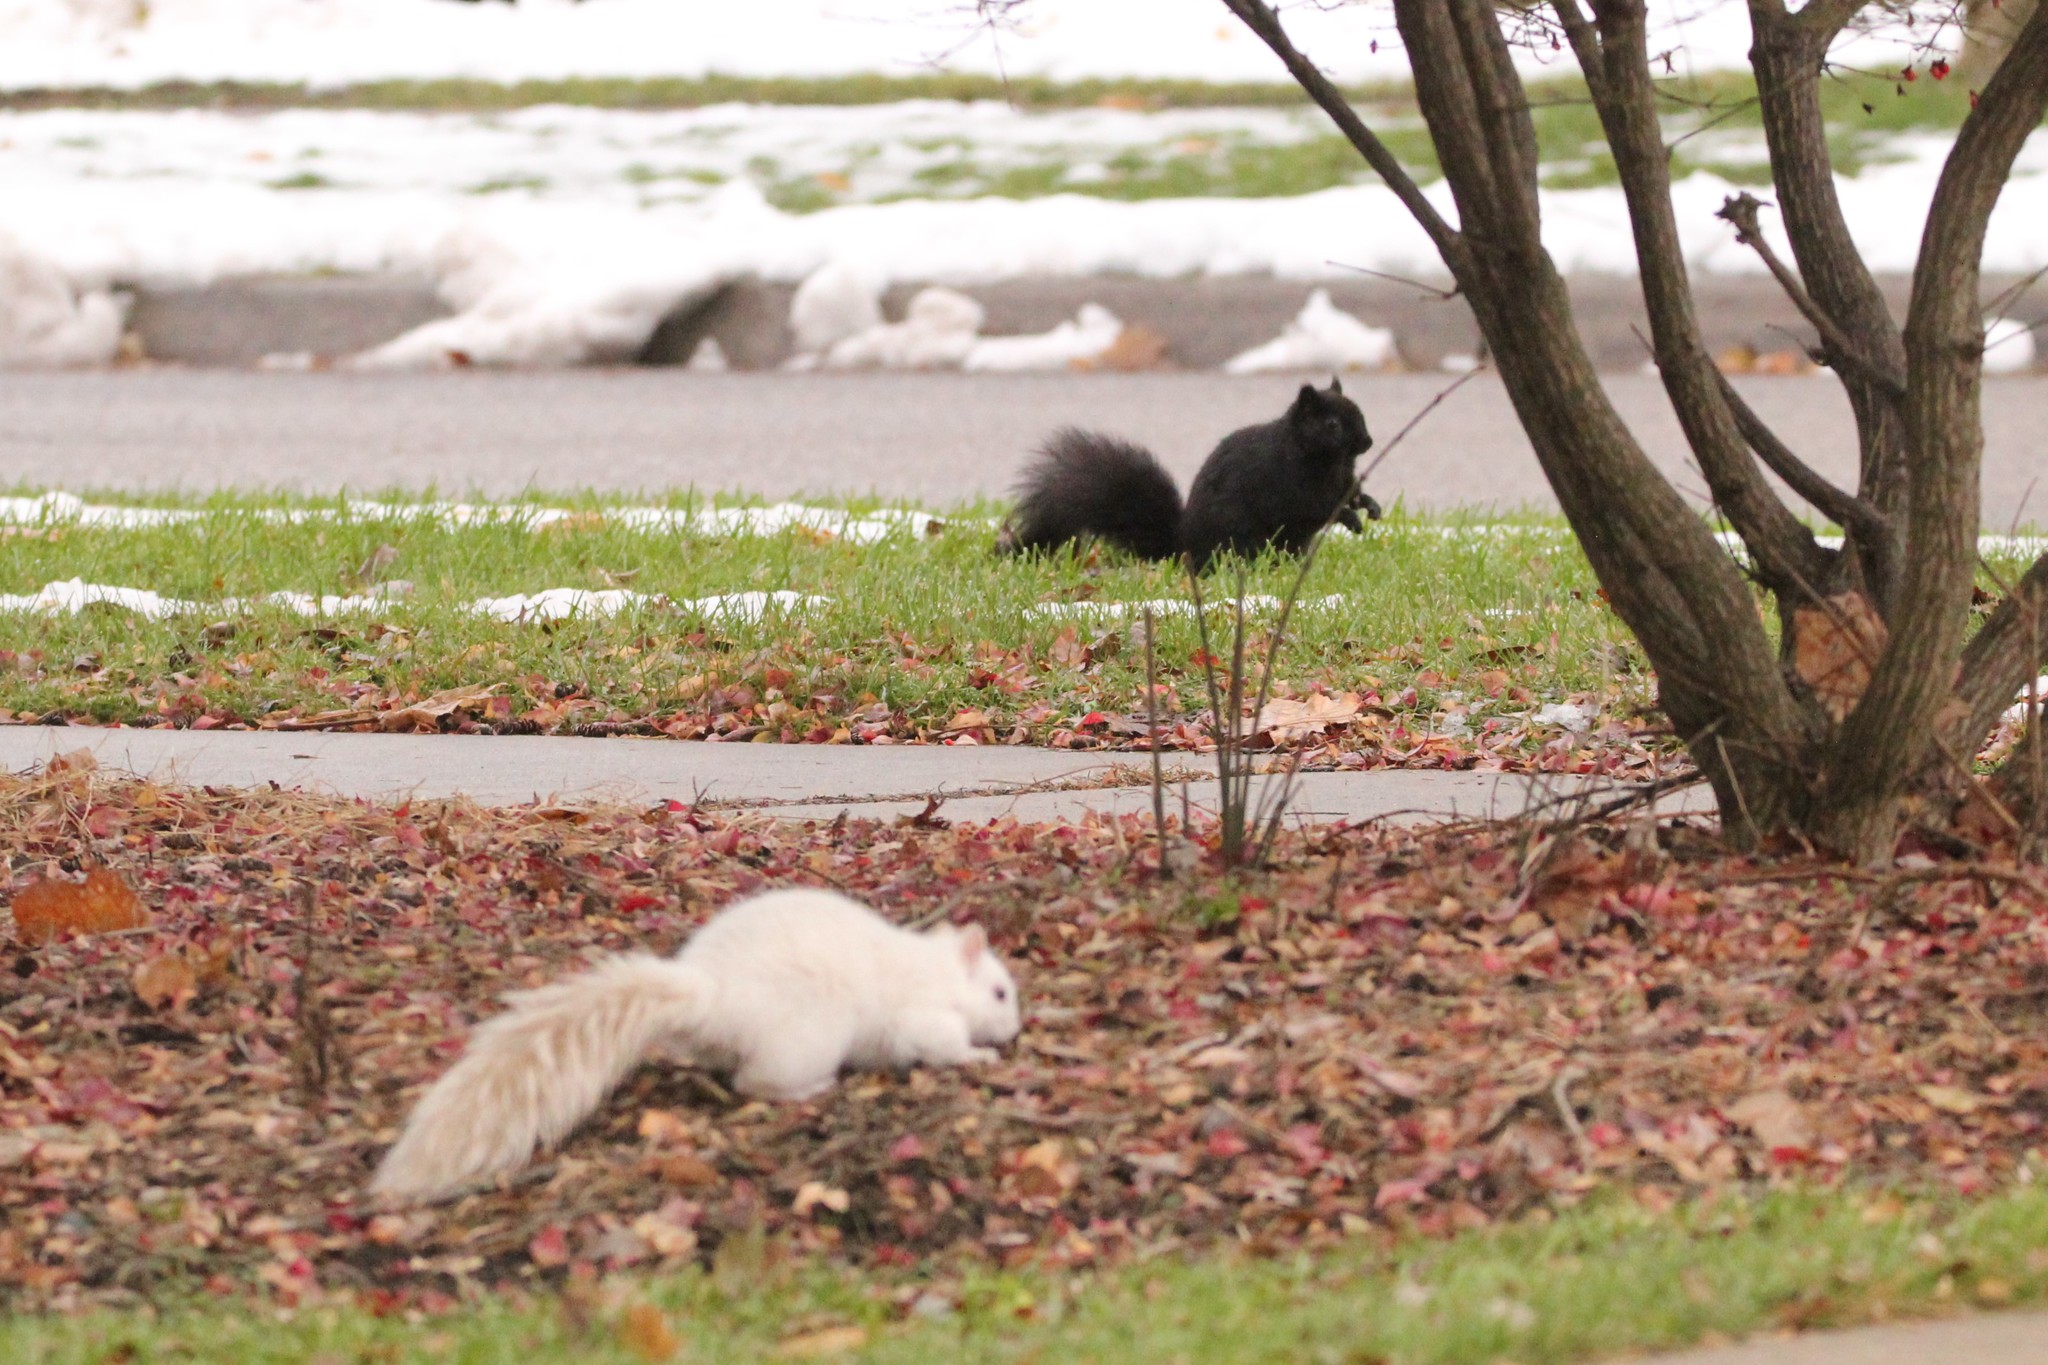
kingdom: Animalia
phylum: Chordata
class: Mammalia
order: Rodentia
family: Sciuridae
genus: Sciurus
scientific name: Sciurus carolinensis
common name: Eastern gray squirrel
